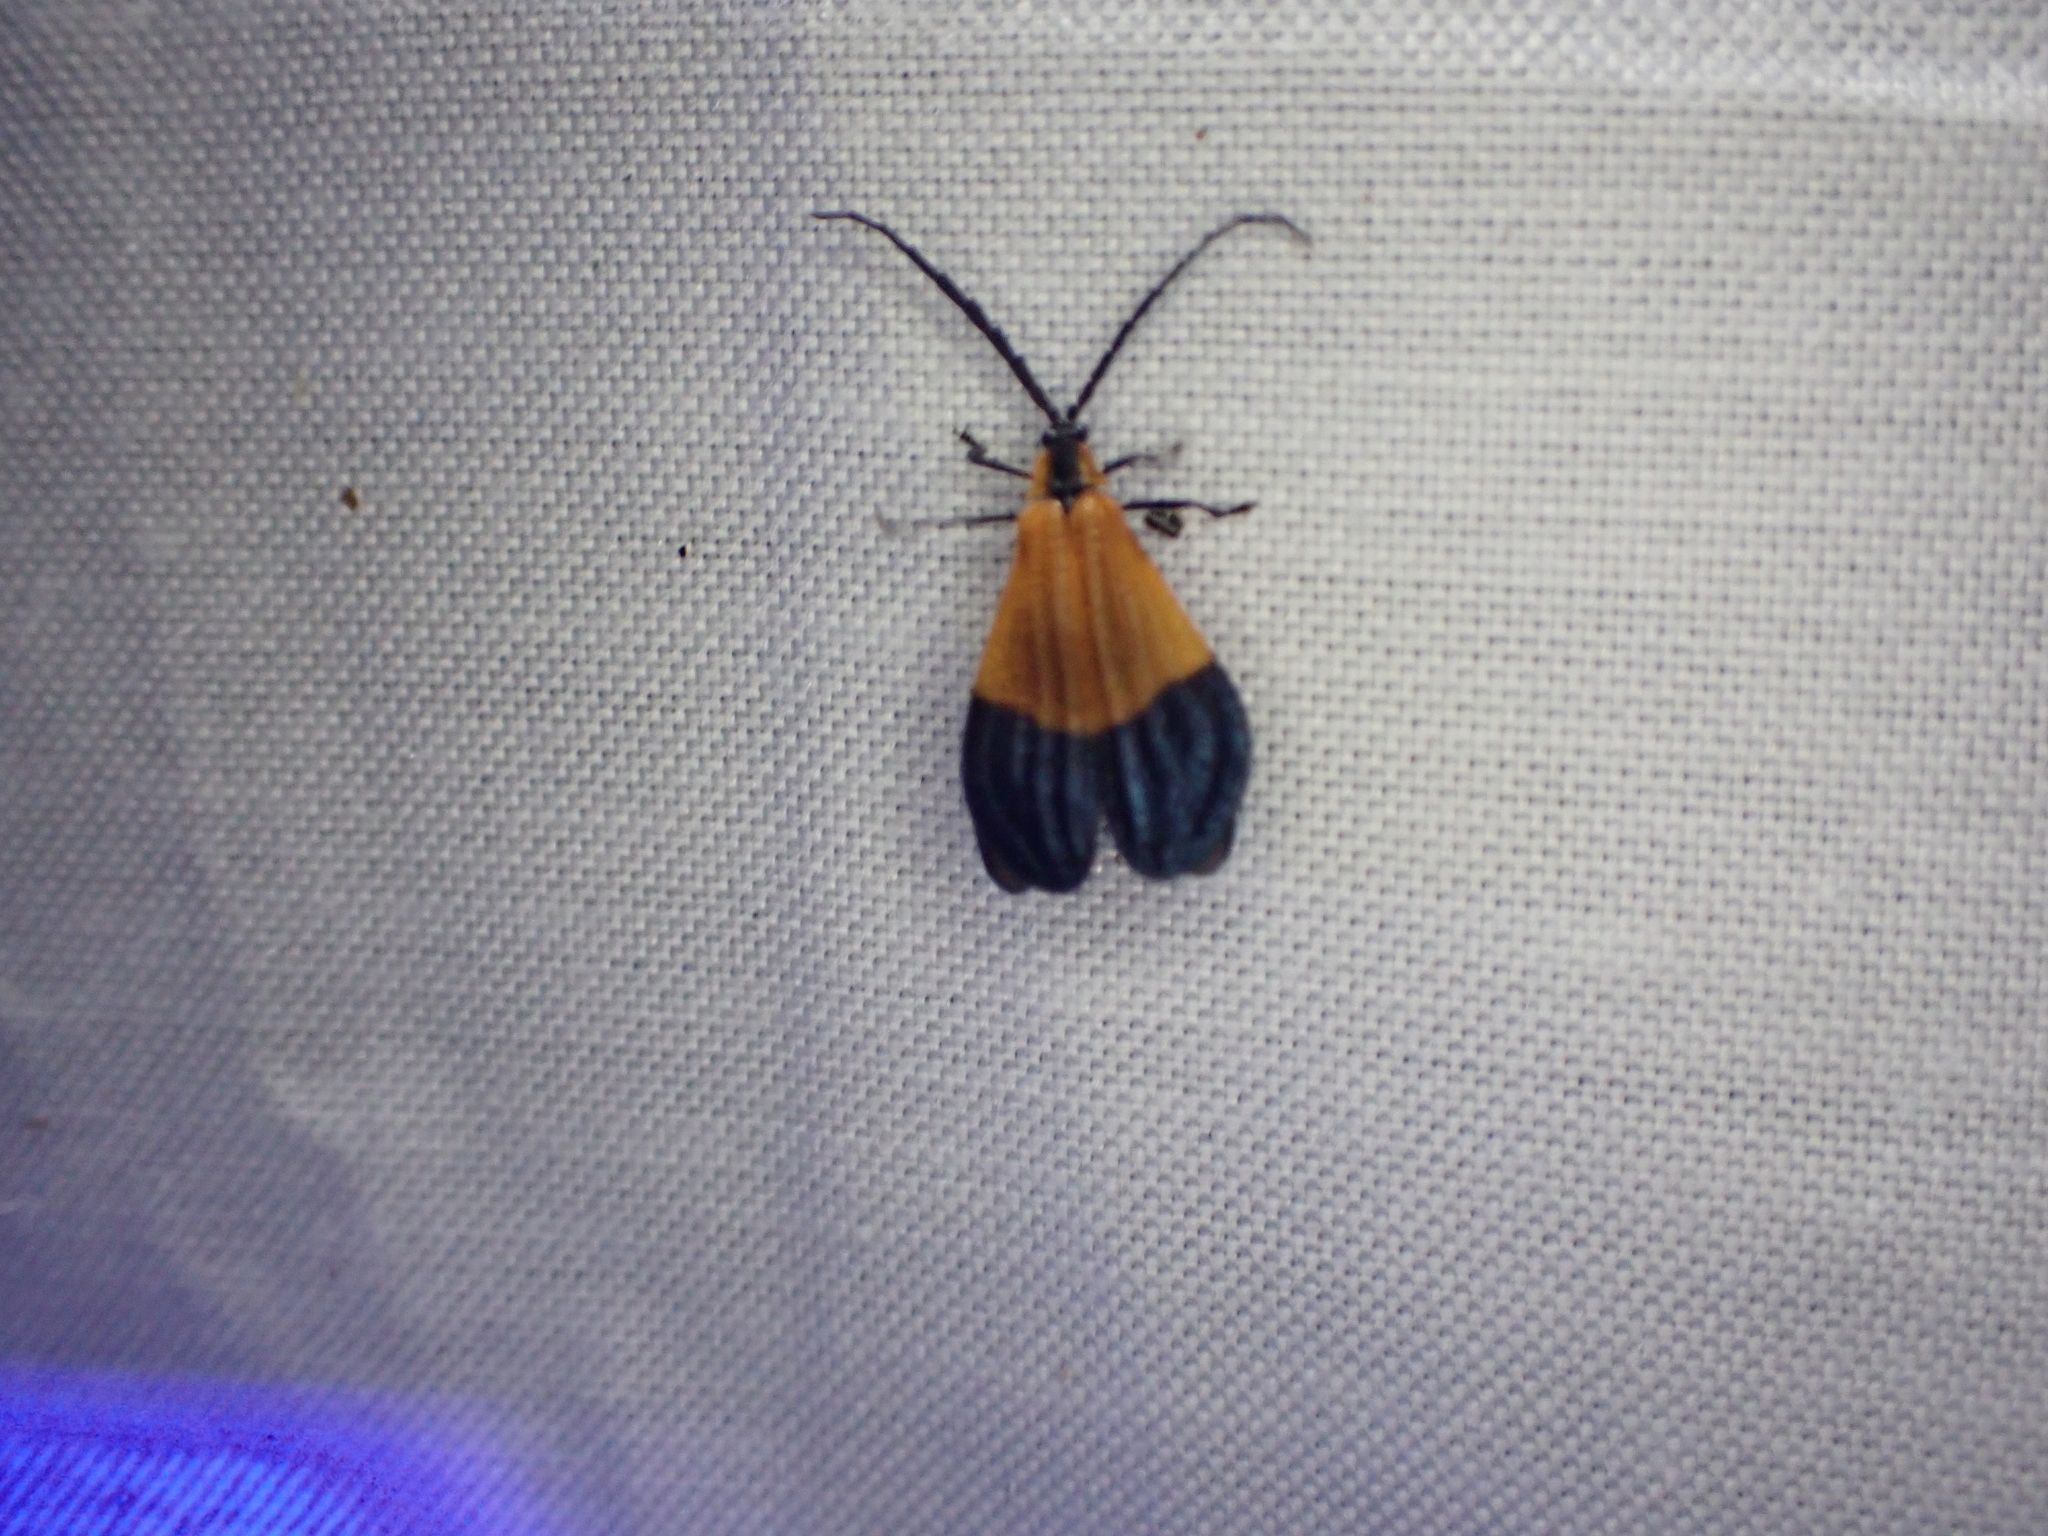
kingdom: Animalia
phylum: Arthropoda
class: Insecta
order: Coleoptera
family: Lycidae
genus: Calopteron
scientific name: Calopteron terminale
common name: End band net-winged beetle
